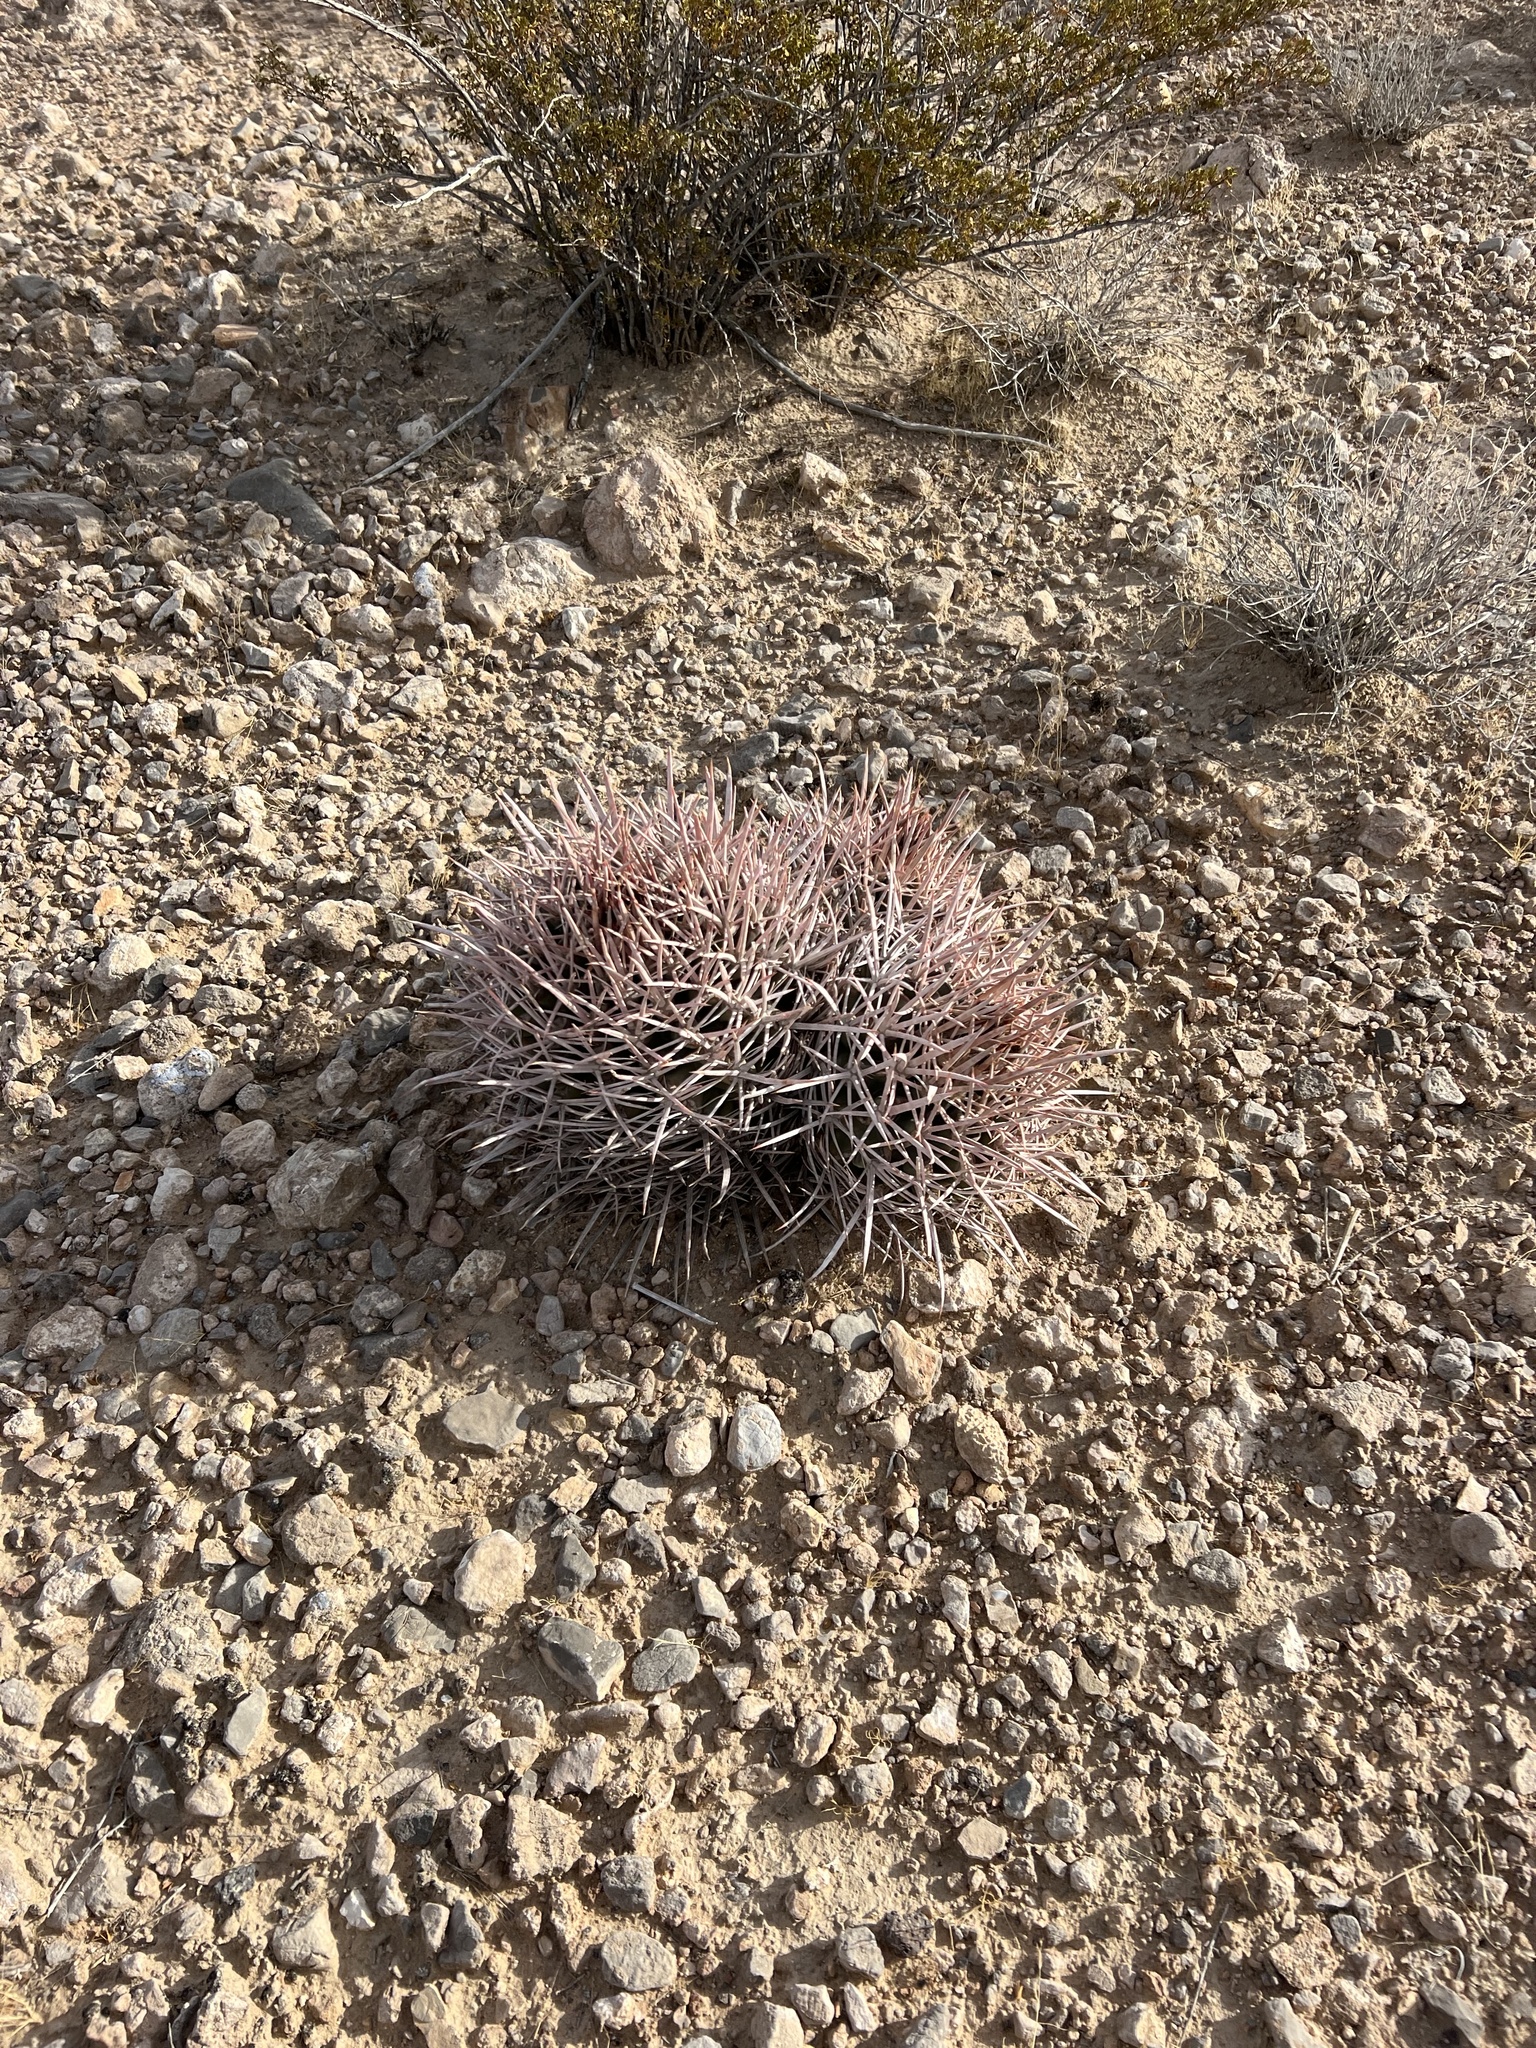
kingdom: Plantae
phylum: Tracheophyta
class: Magnoliopsida
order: Caryophyllales
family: Cactaceae
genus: Echinocactus
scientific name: Echinocactus polycephalus
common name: Cottontop cactus
